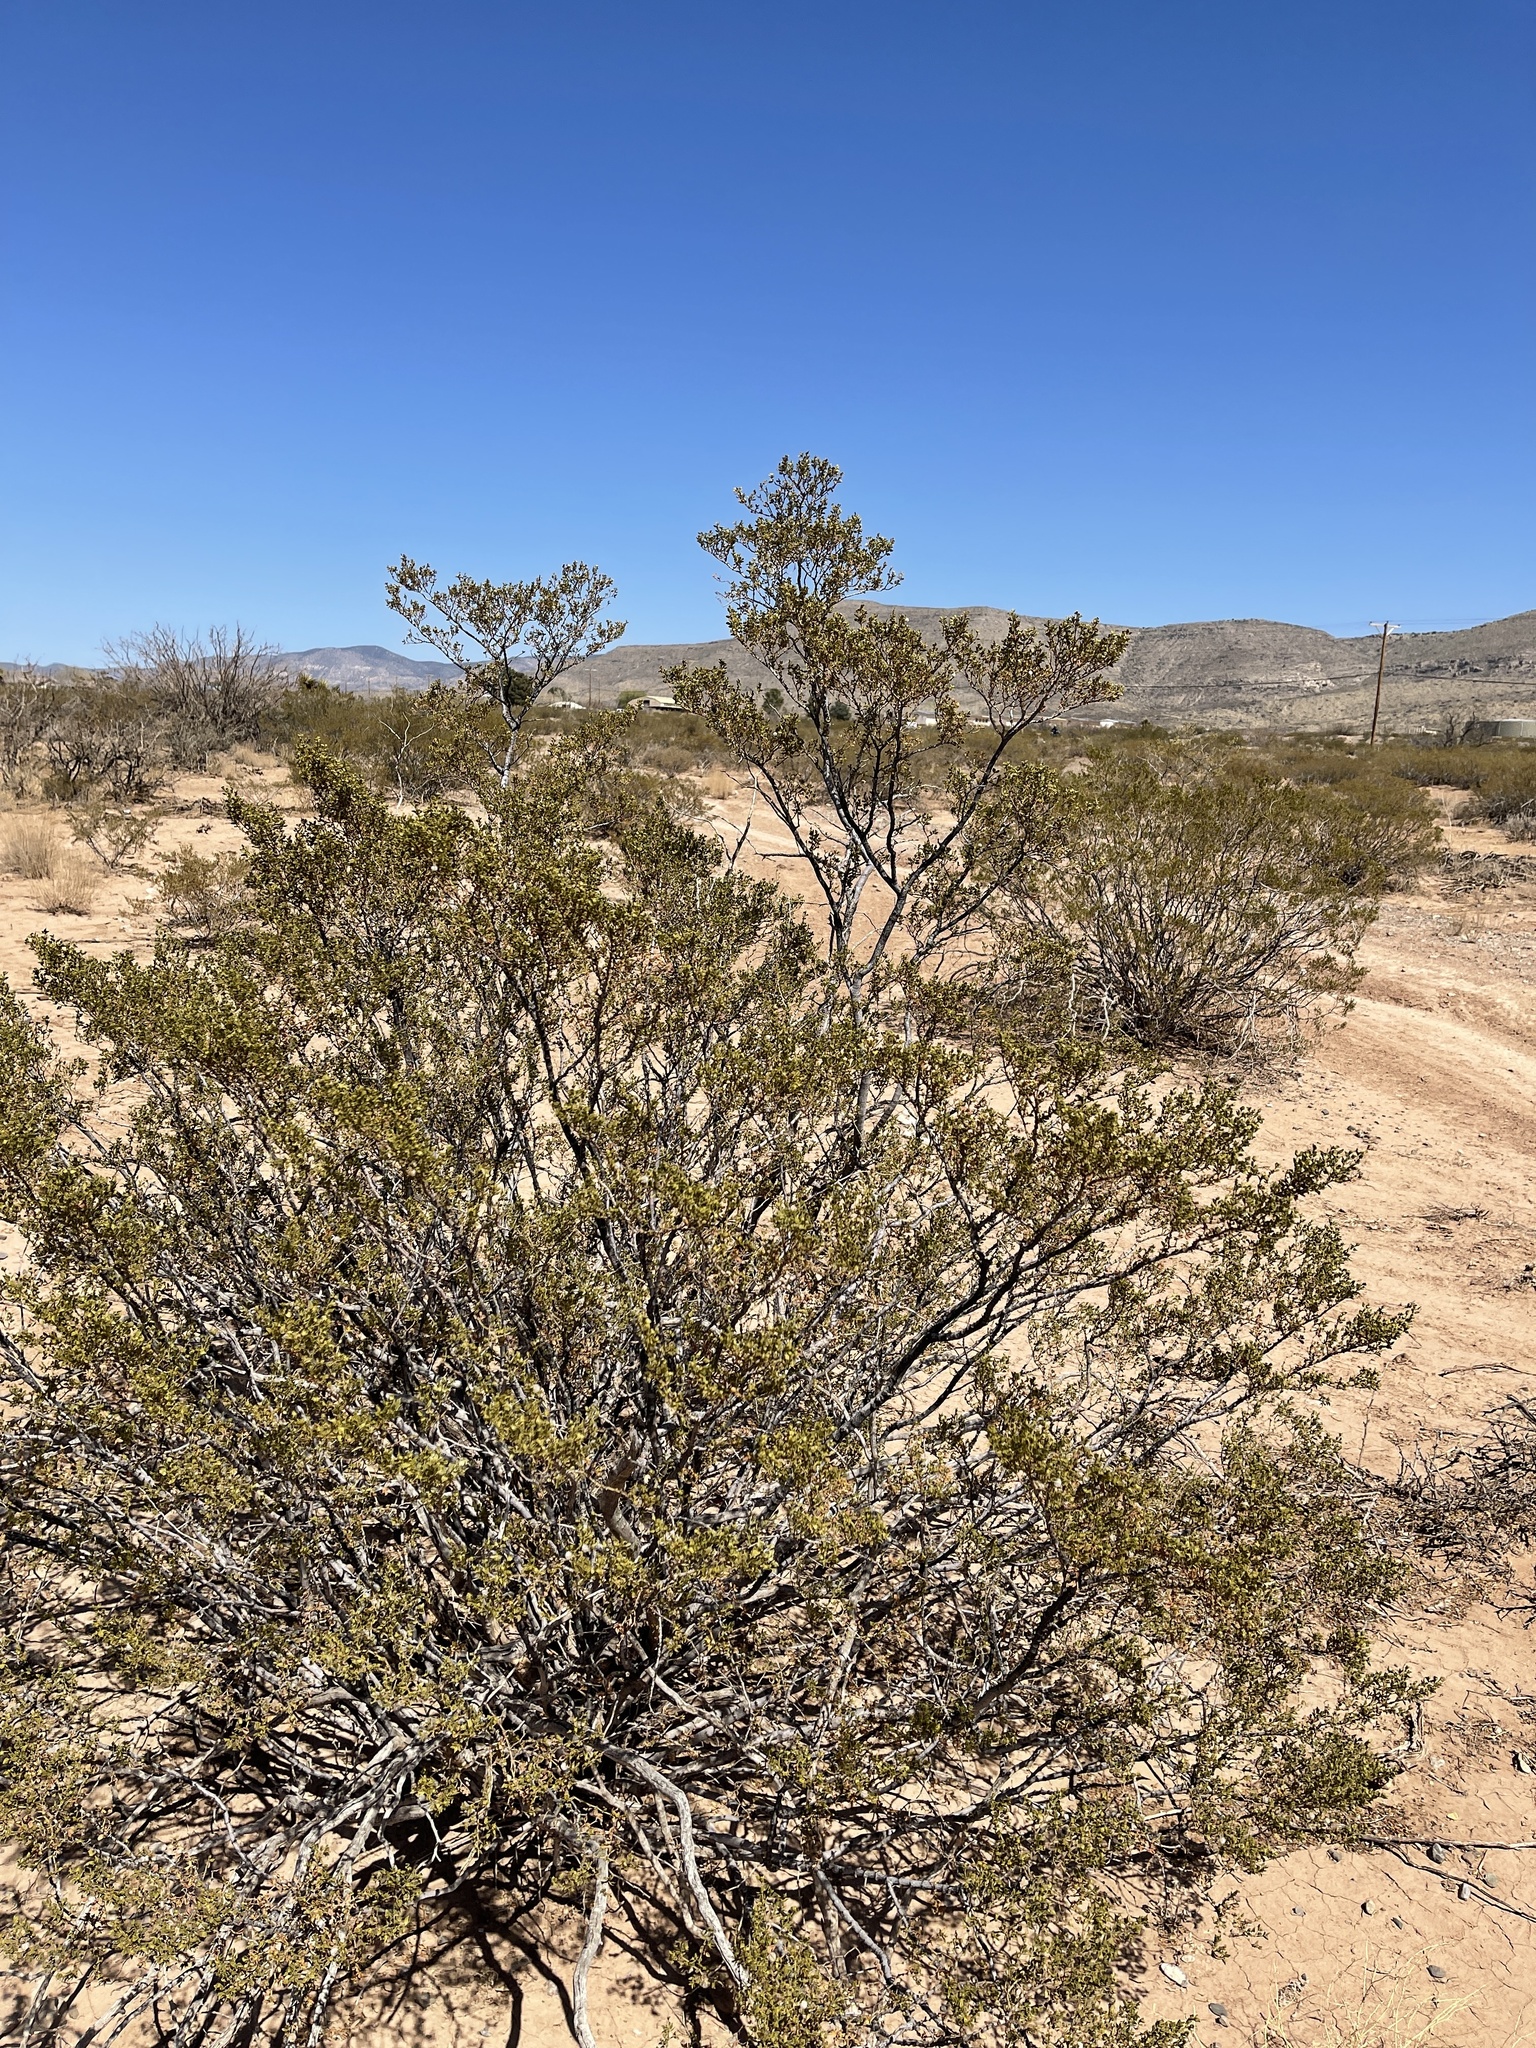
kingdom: Plantae
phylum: Tracheophyta
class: Magnoliopsida
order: Zygophyllales
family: Zygophyllaceae
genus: Larrea
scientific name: Larrea tridentata
